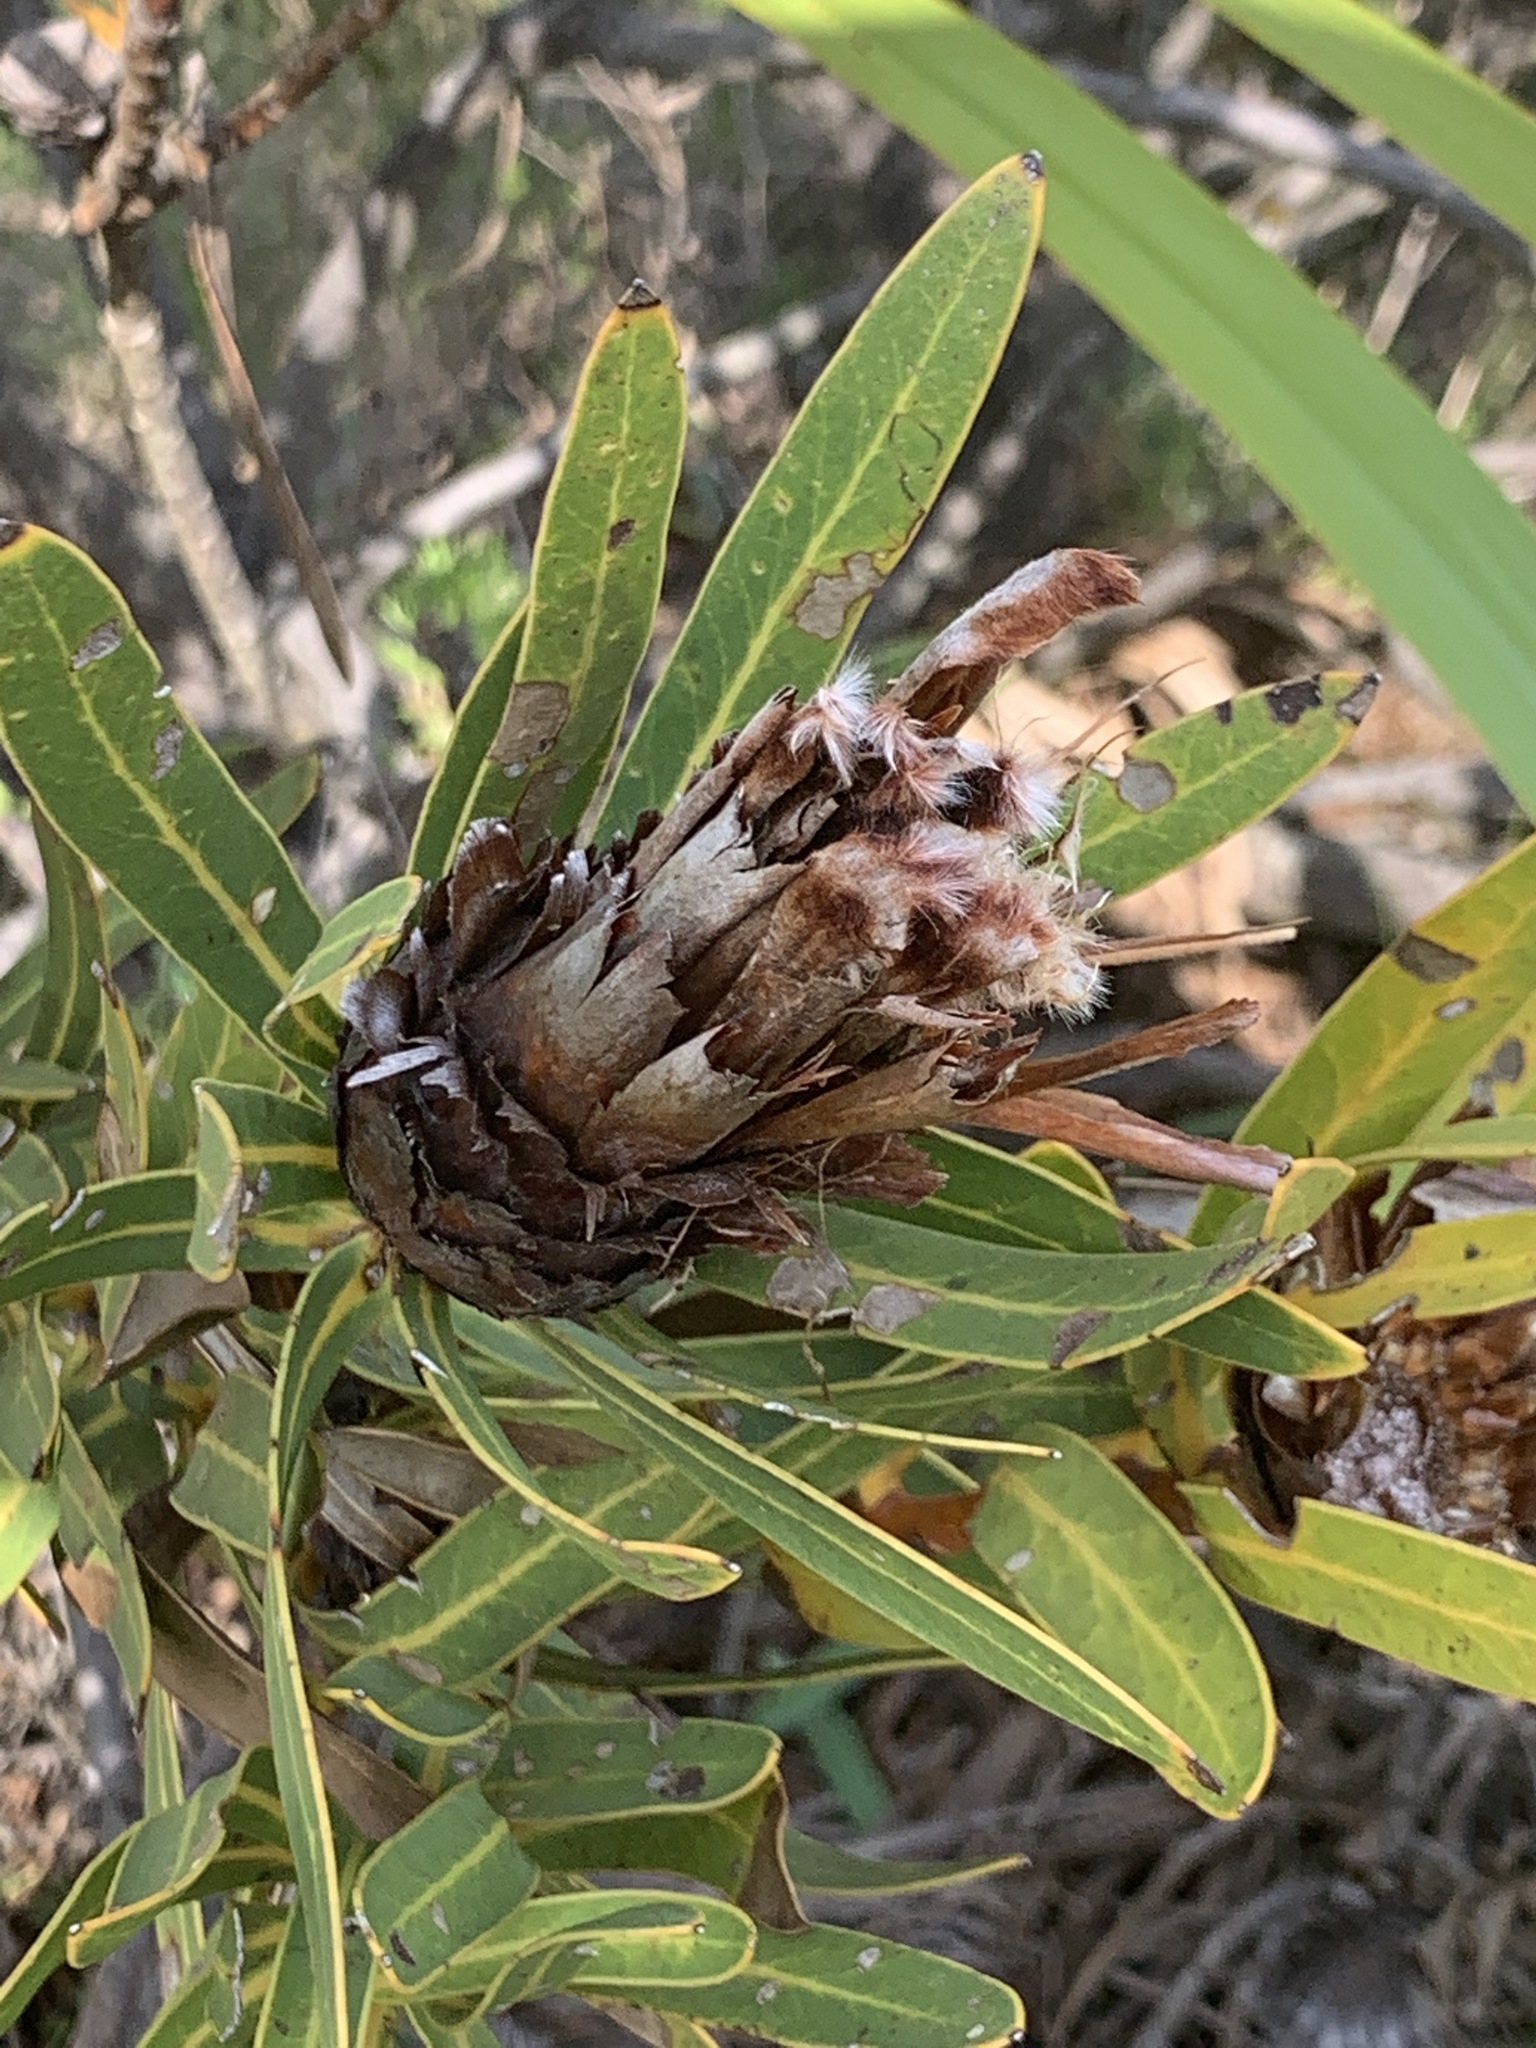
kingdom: Plantae
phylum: Tracheophyta
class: Magnoliopsida
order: Proteales
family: Proteaceae
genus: Protea
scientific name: Protea lepidocarpodendron
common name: Black-bearded protea
